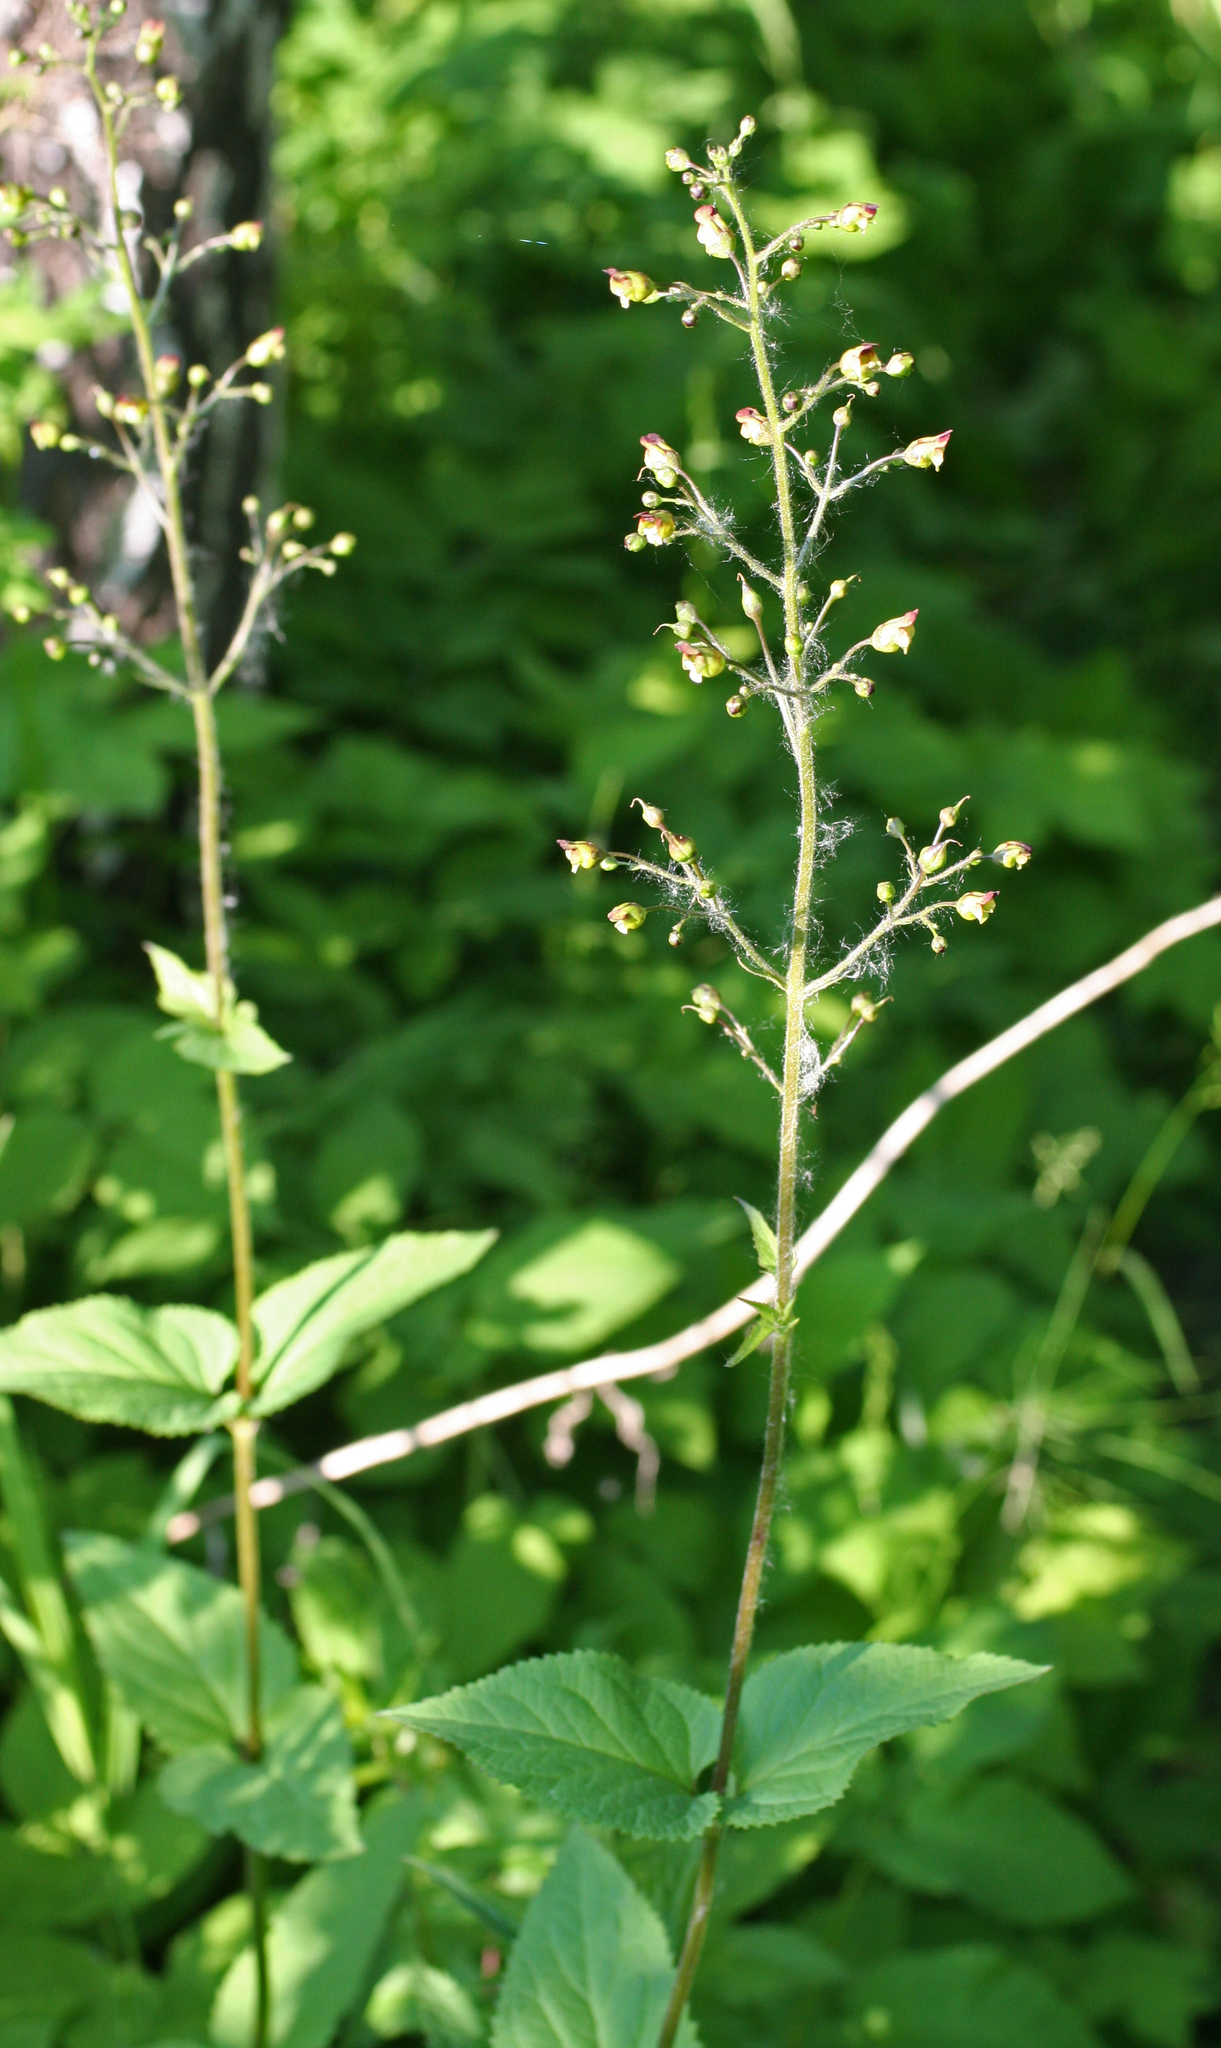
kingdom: Plantae
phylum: Tracheophyta
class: Magnoliopsida
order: Lamiales
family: Scrophulariaceae
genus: Scrophularia
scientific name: Scrophularia nodosa
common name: Common figwort
